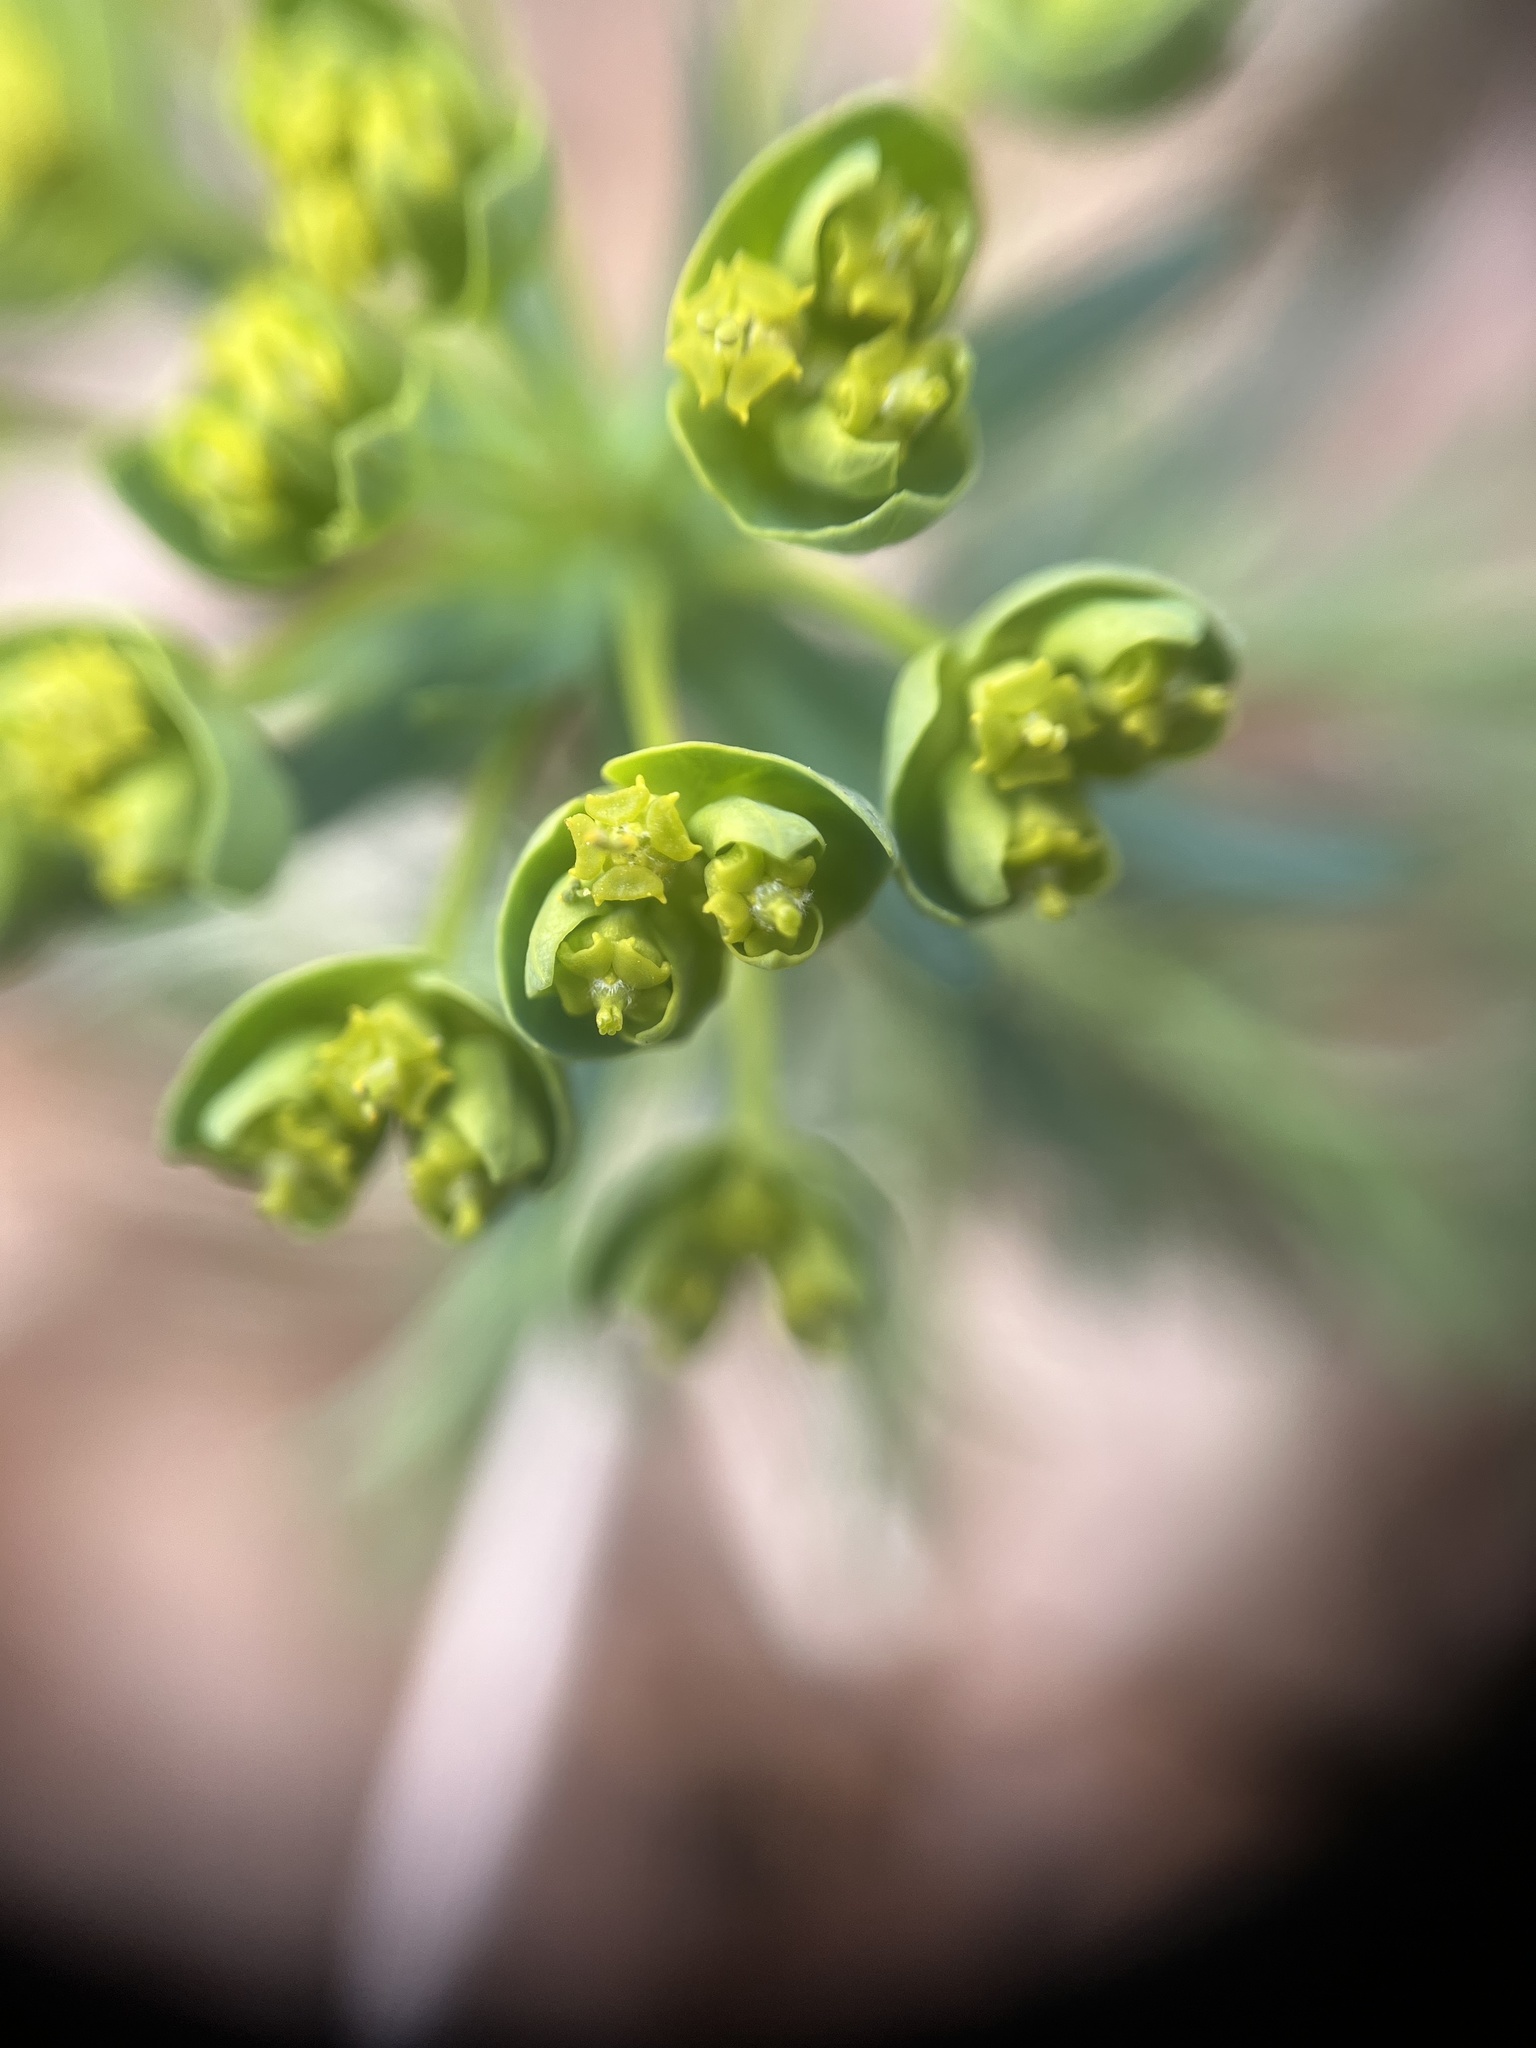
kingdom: Plantae
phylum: Tracheophyta
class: Magnoliopsida
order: Malpighiales
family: Euphorbiaceae
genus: Euphorbia
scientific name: Euphorbia cyparissias
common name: Cypress spurge
